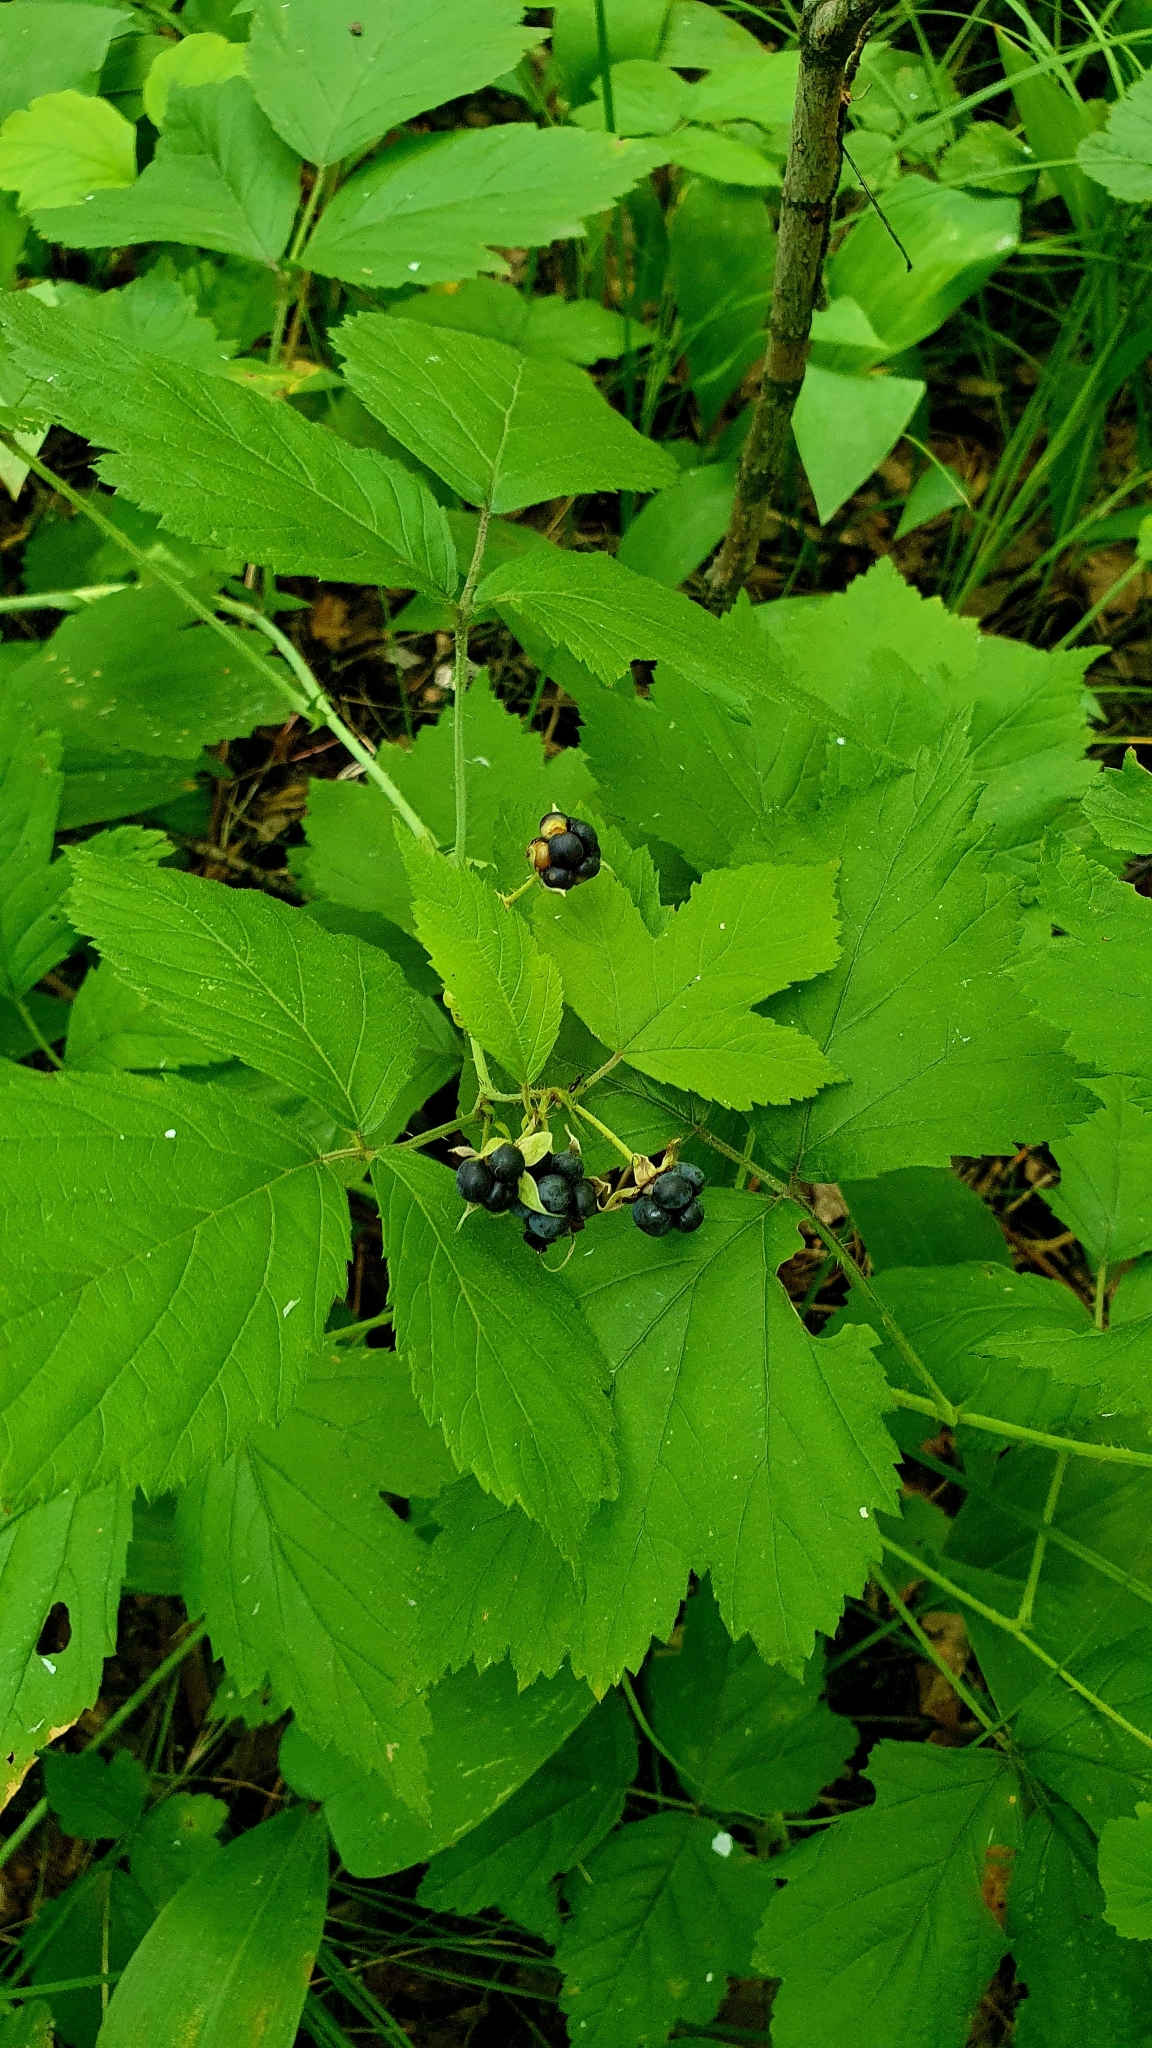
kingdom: Plantae
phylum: Tracheophyta
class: Magnoliopsida
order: Rosales
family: Rosaceae
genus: Rubus
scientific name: Rubus caesius
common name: Dewberry
